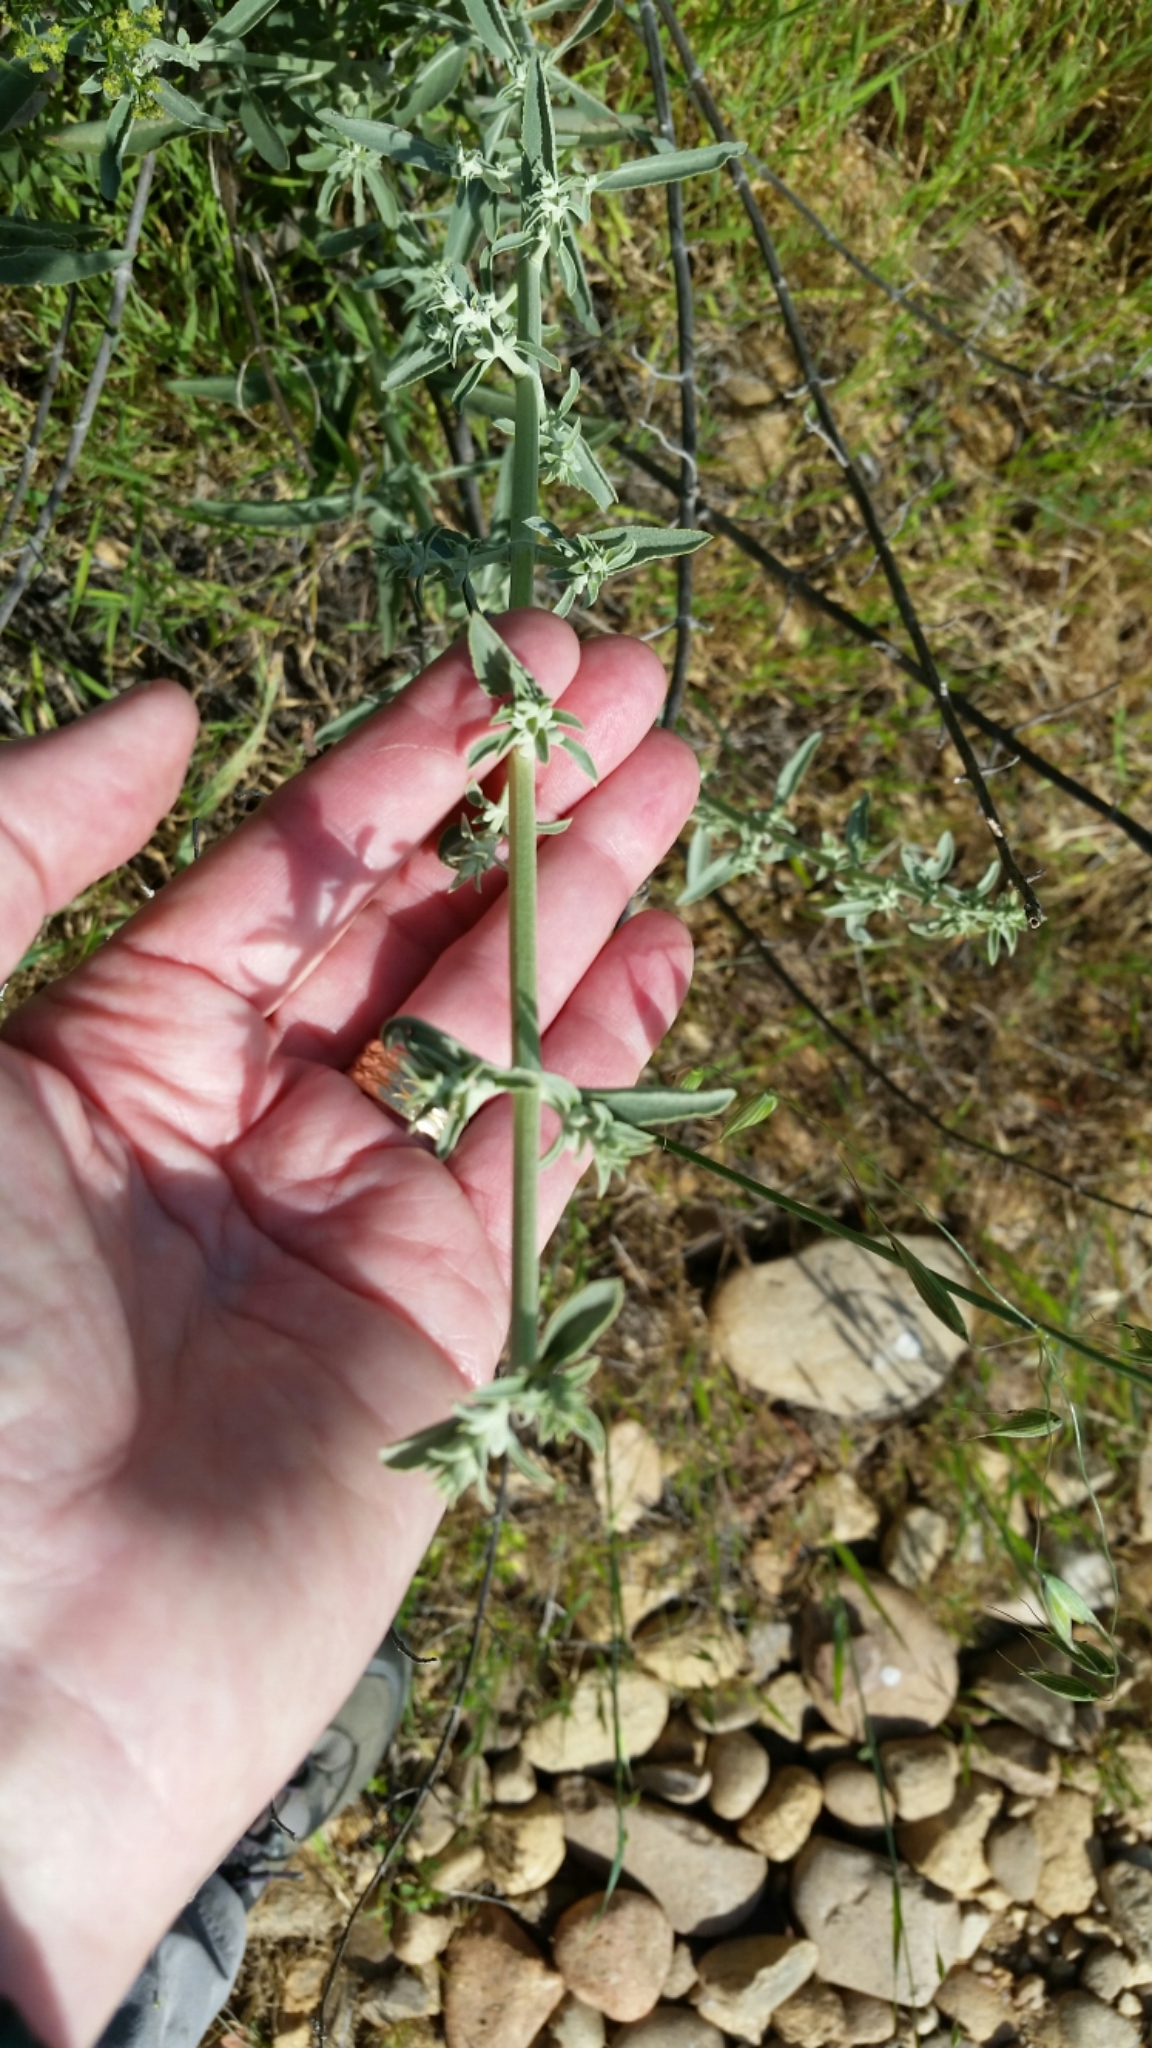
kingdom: Plantae
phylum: Tracheophyta
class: Magnoliopsida
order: Lamiales
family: Lamiaceae
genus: Salvia
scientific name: Salvia apiana
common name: White sage
